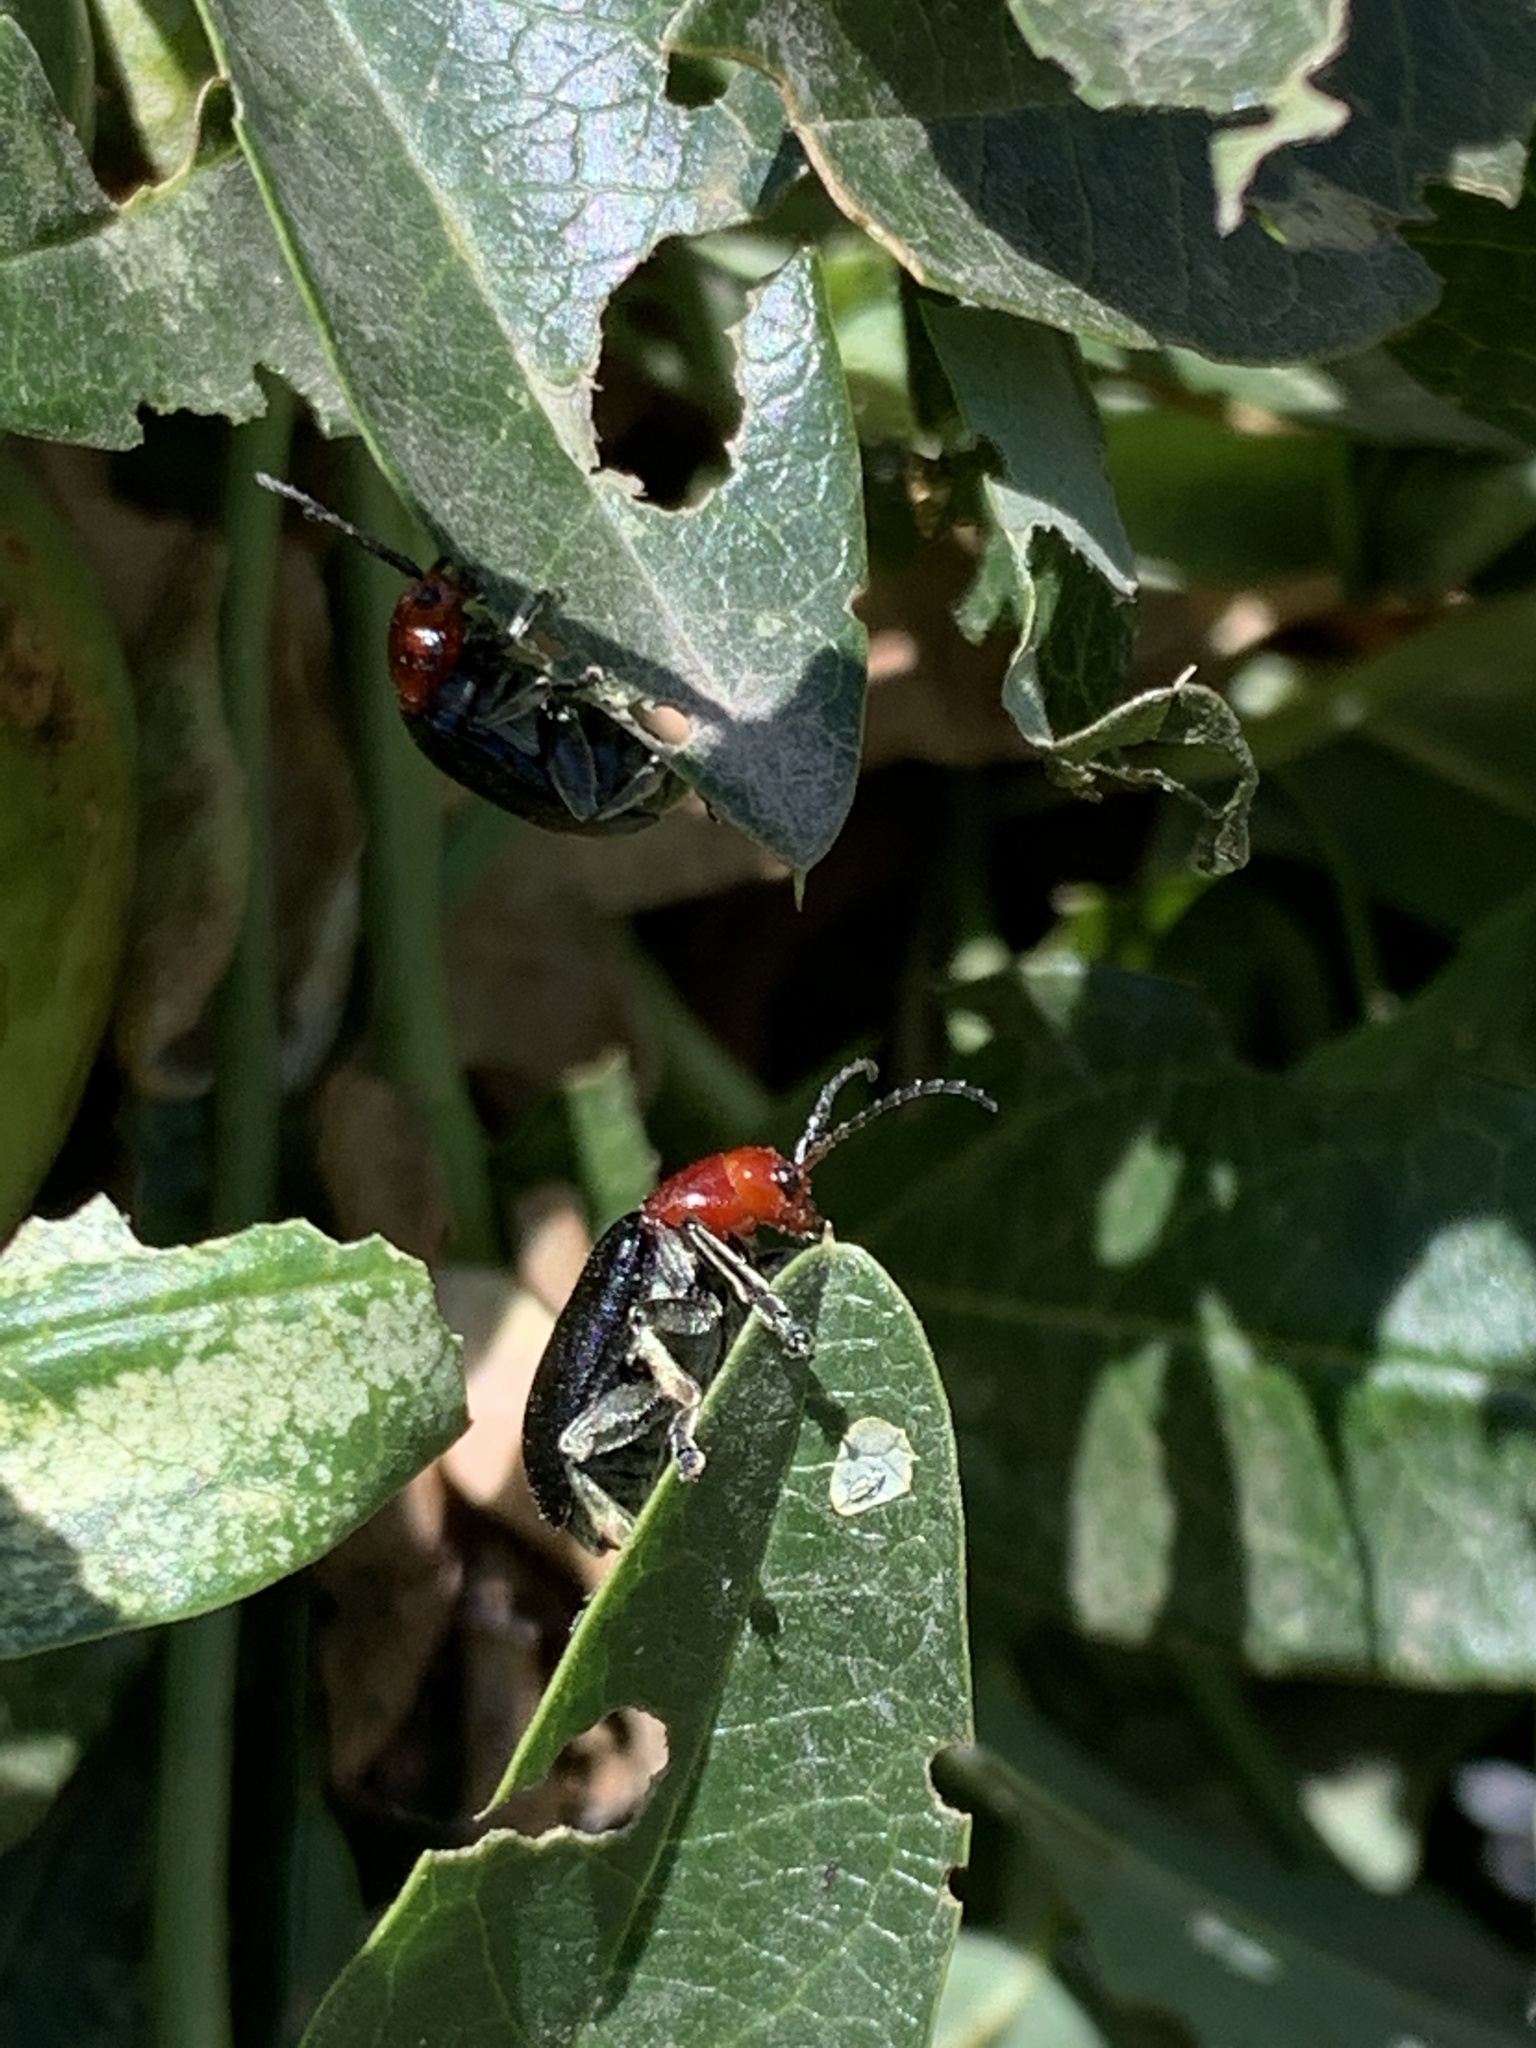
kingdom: Animalia
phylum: Arthropoda
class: Insecta
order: Coleoptera
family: Chrysomelidae
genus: Cacoscelis
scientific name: Cacoscelis
